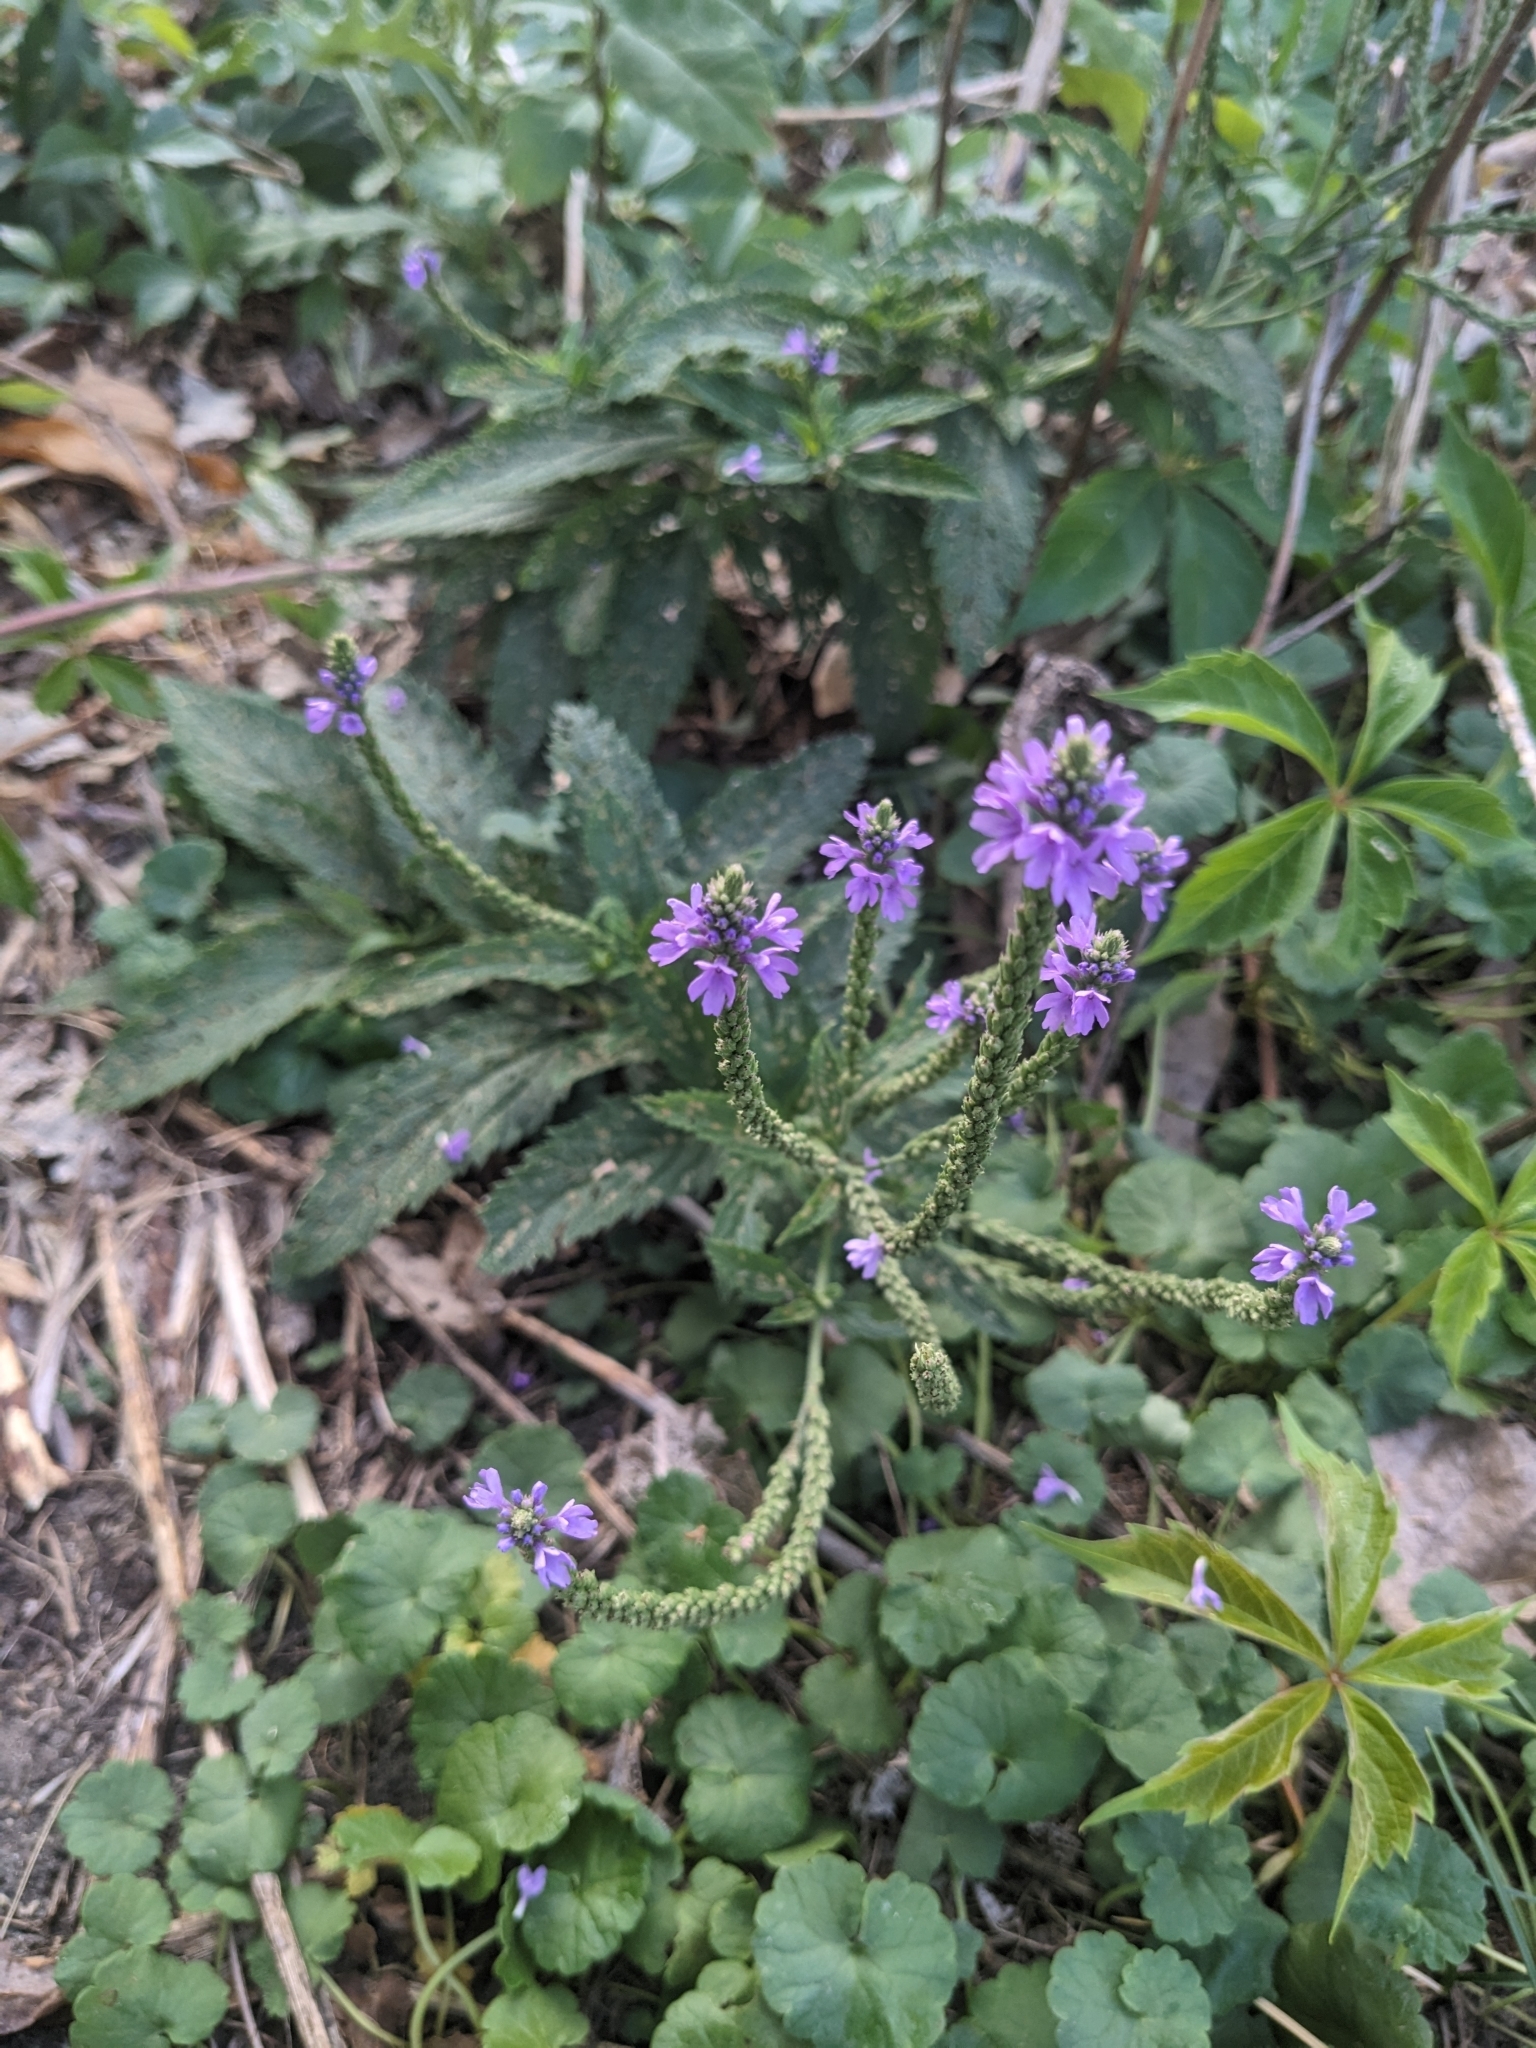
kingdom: Plantae
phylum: Tracheophyta
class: Magnoliopsida
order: Lamiales
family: Verbenaceae
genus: Verbena
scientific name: Verbena hastata
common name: American blue vervain
